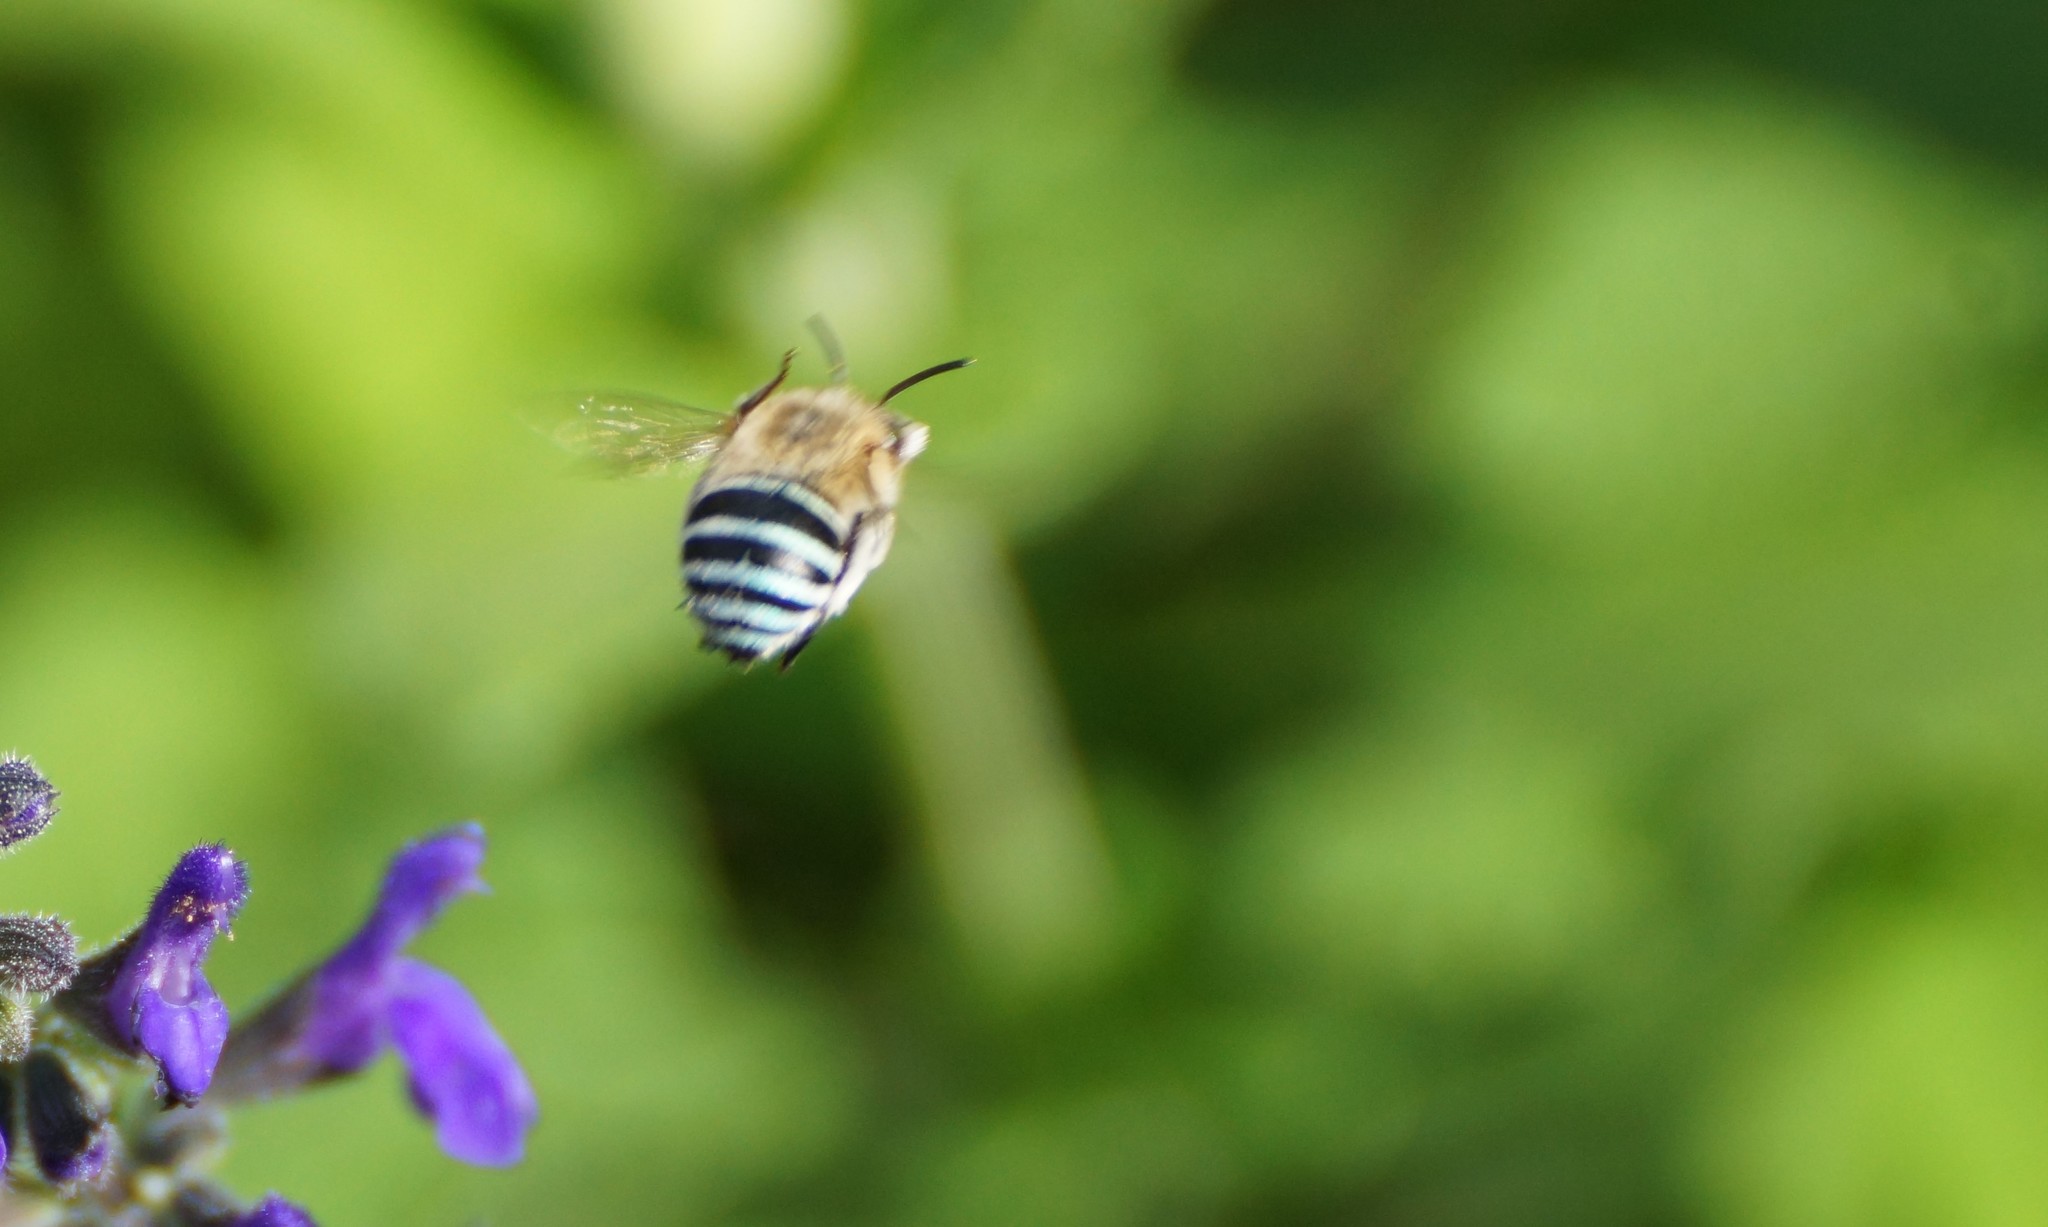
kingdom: Animalia
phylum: Arthropoda
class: Insecta
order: Hymenoptera
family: Apidae
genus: Amegilla
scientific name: Amegilla
